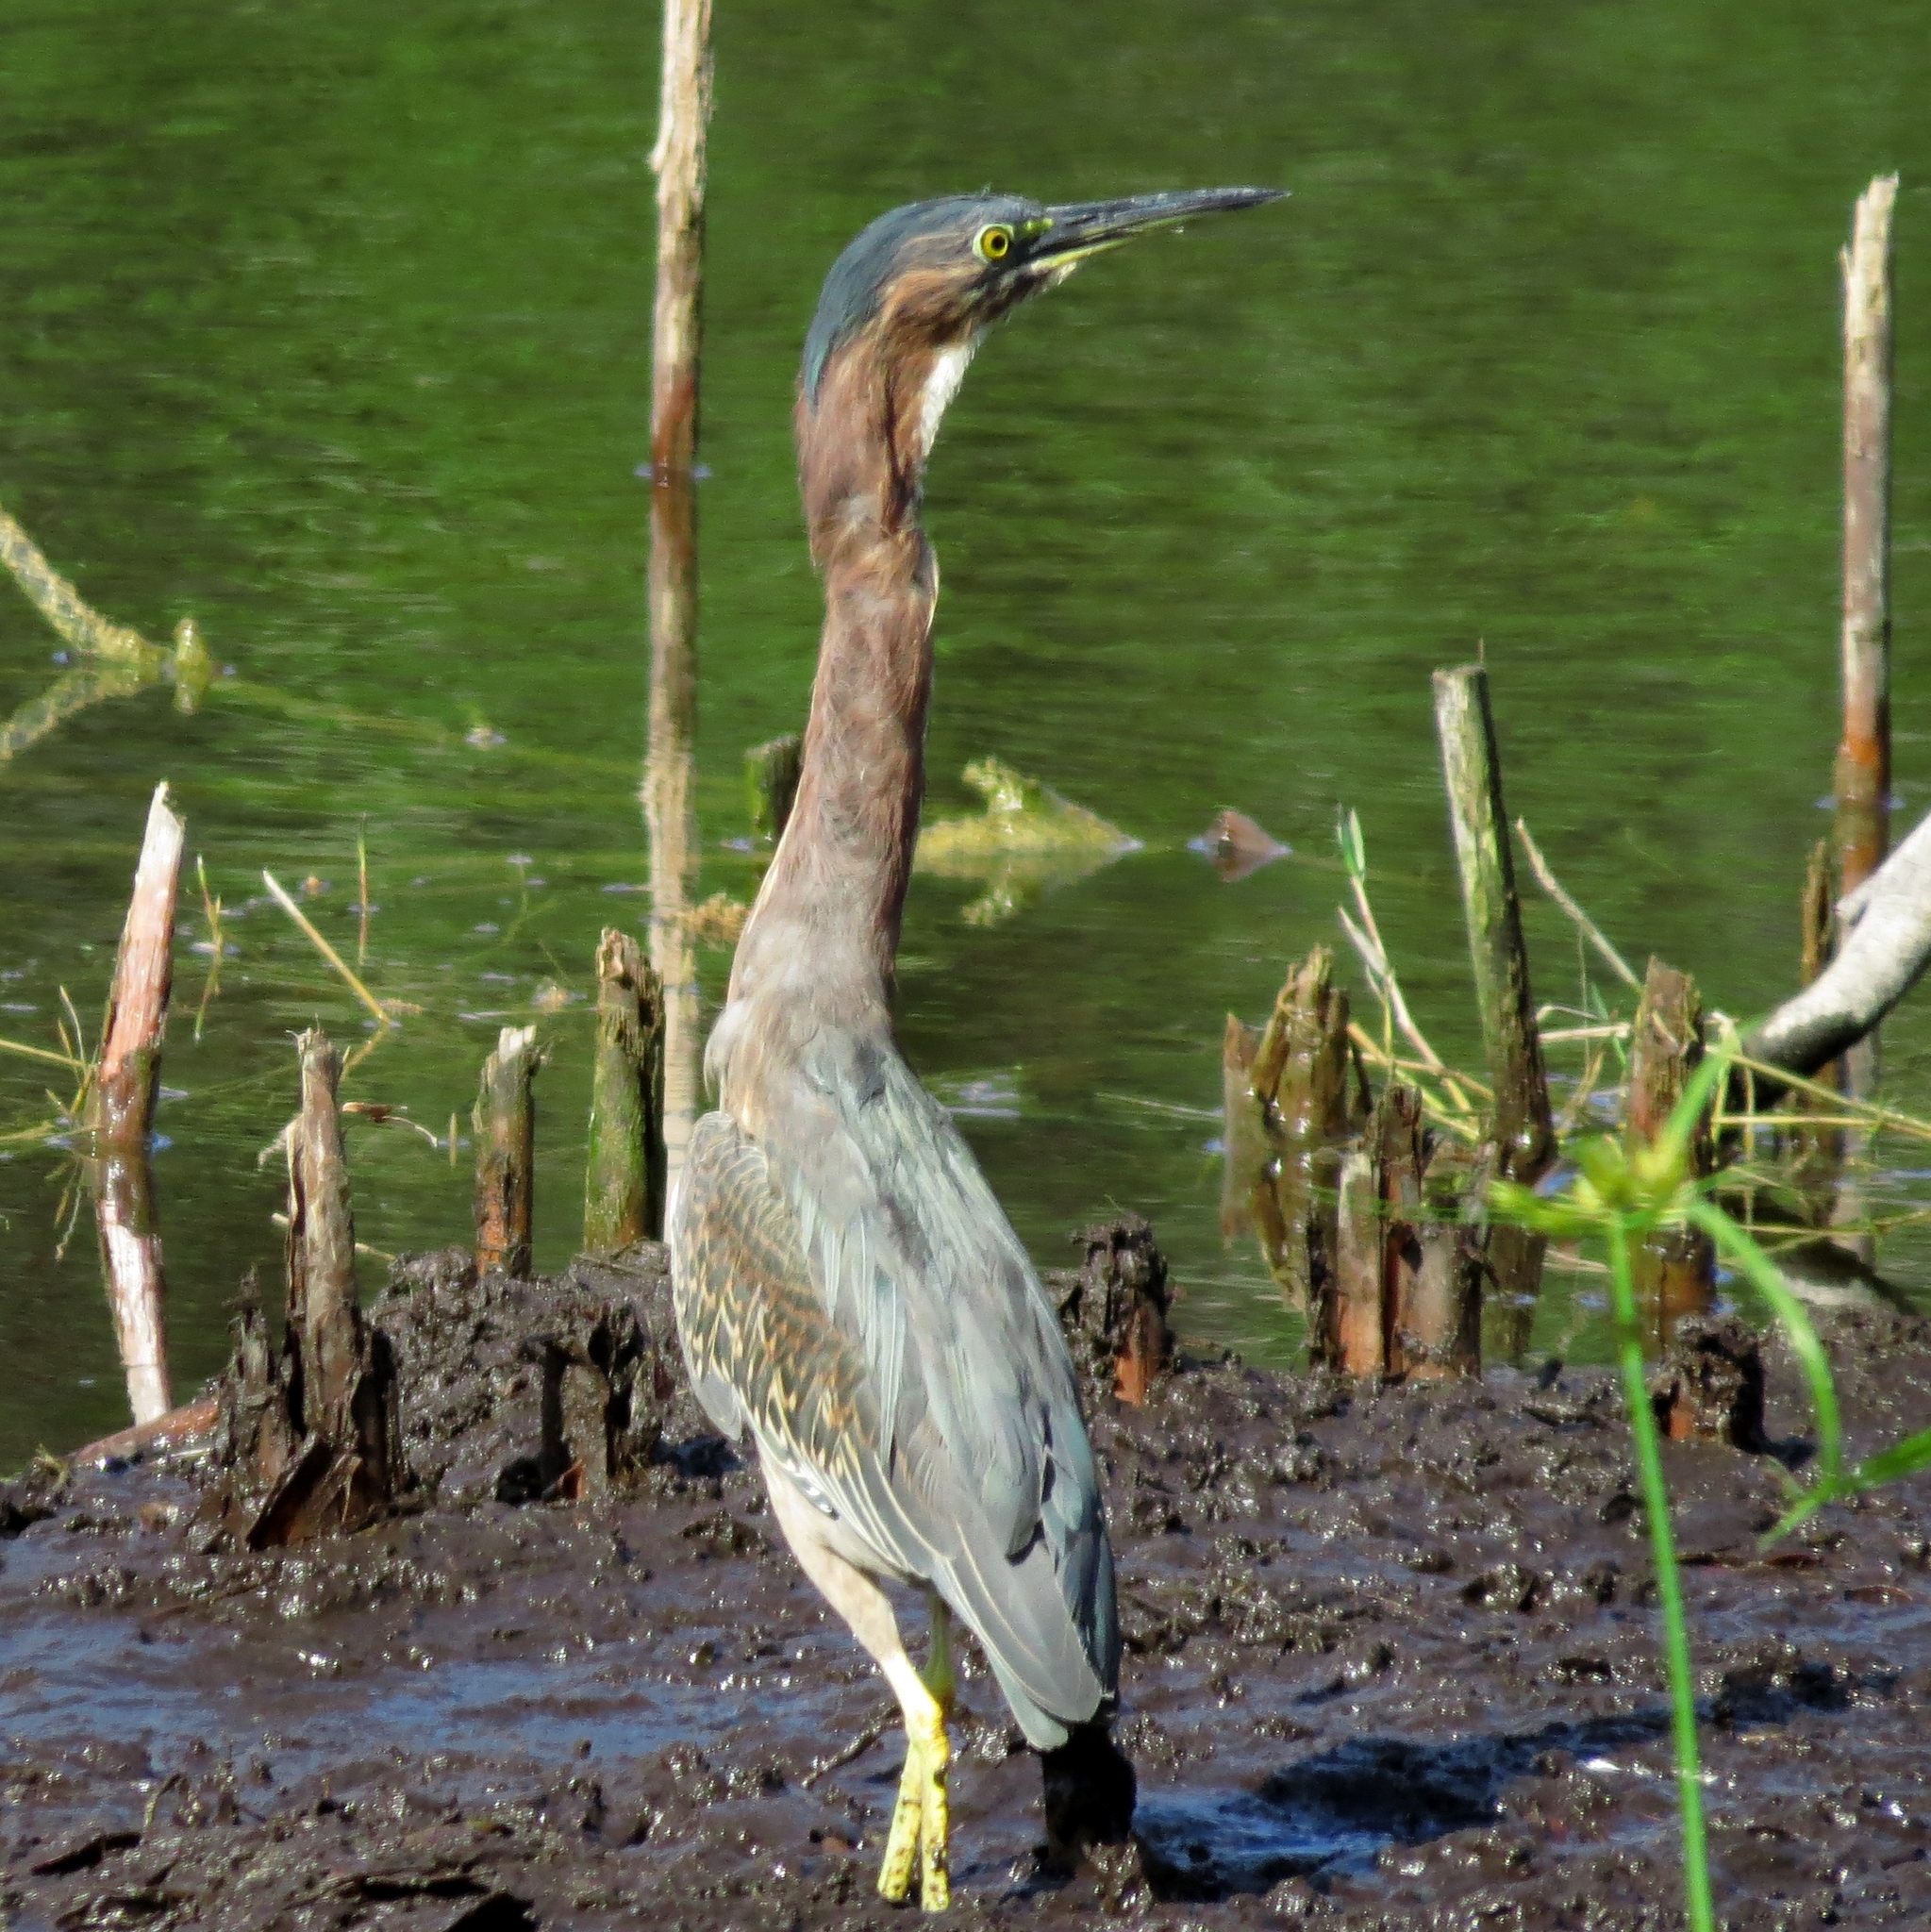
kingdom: Animalia
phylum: Chordata
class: Aves
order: Pelecaniformes
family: Ardeidae
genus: Butorides
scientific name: Butorides virescens
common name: Green heron
